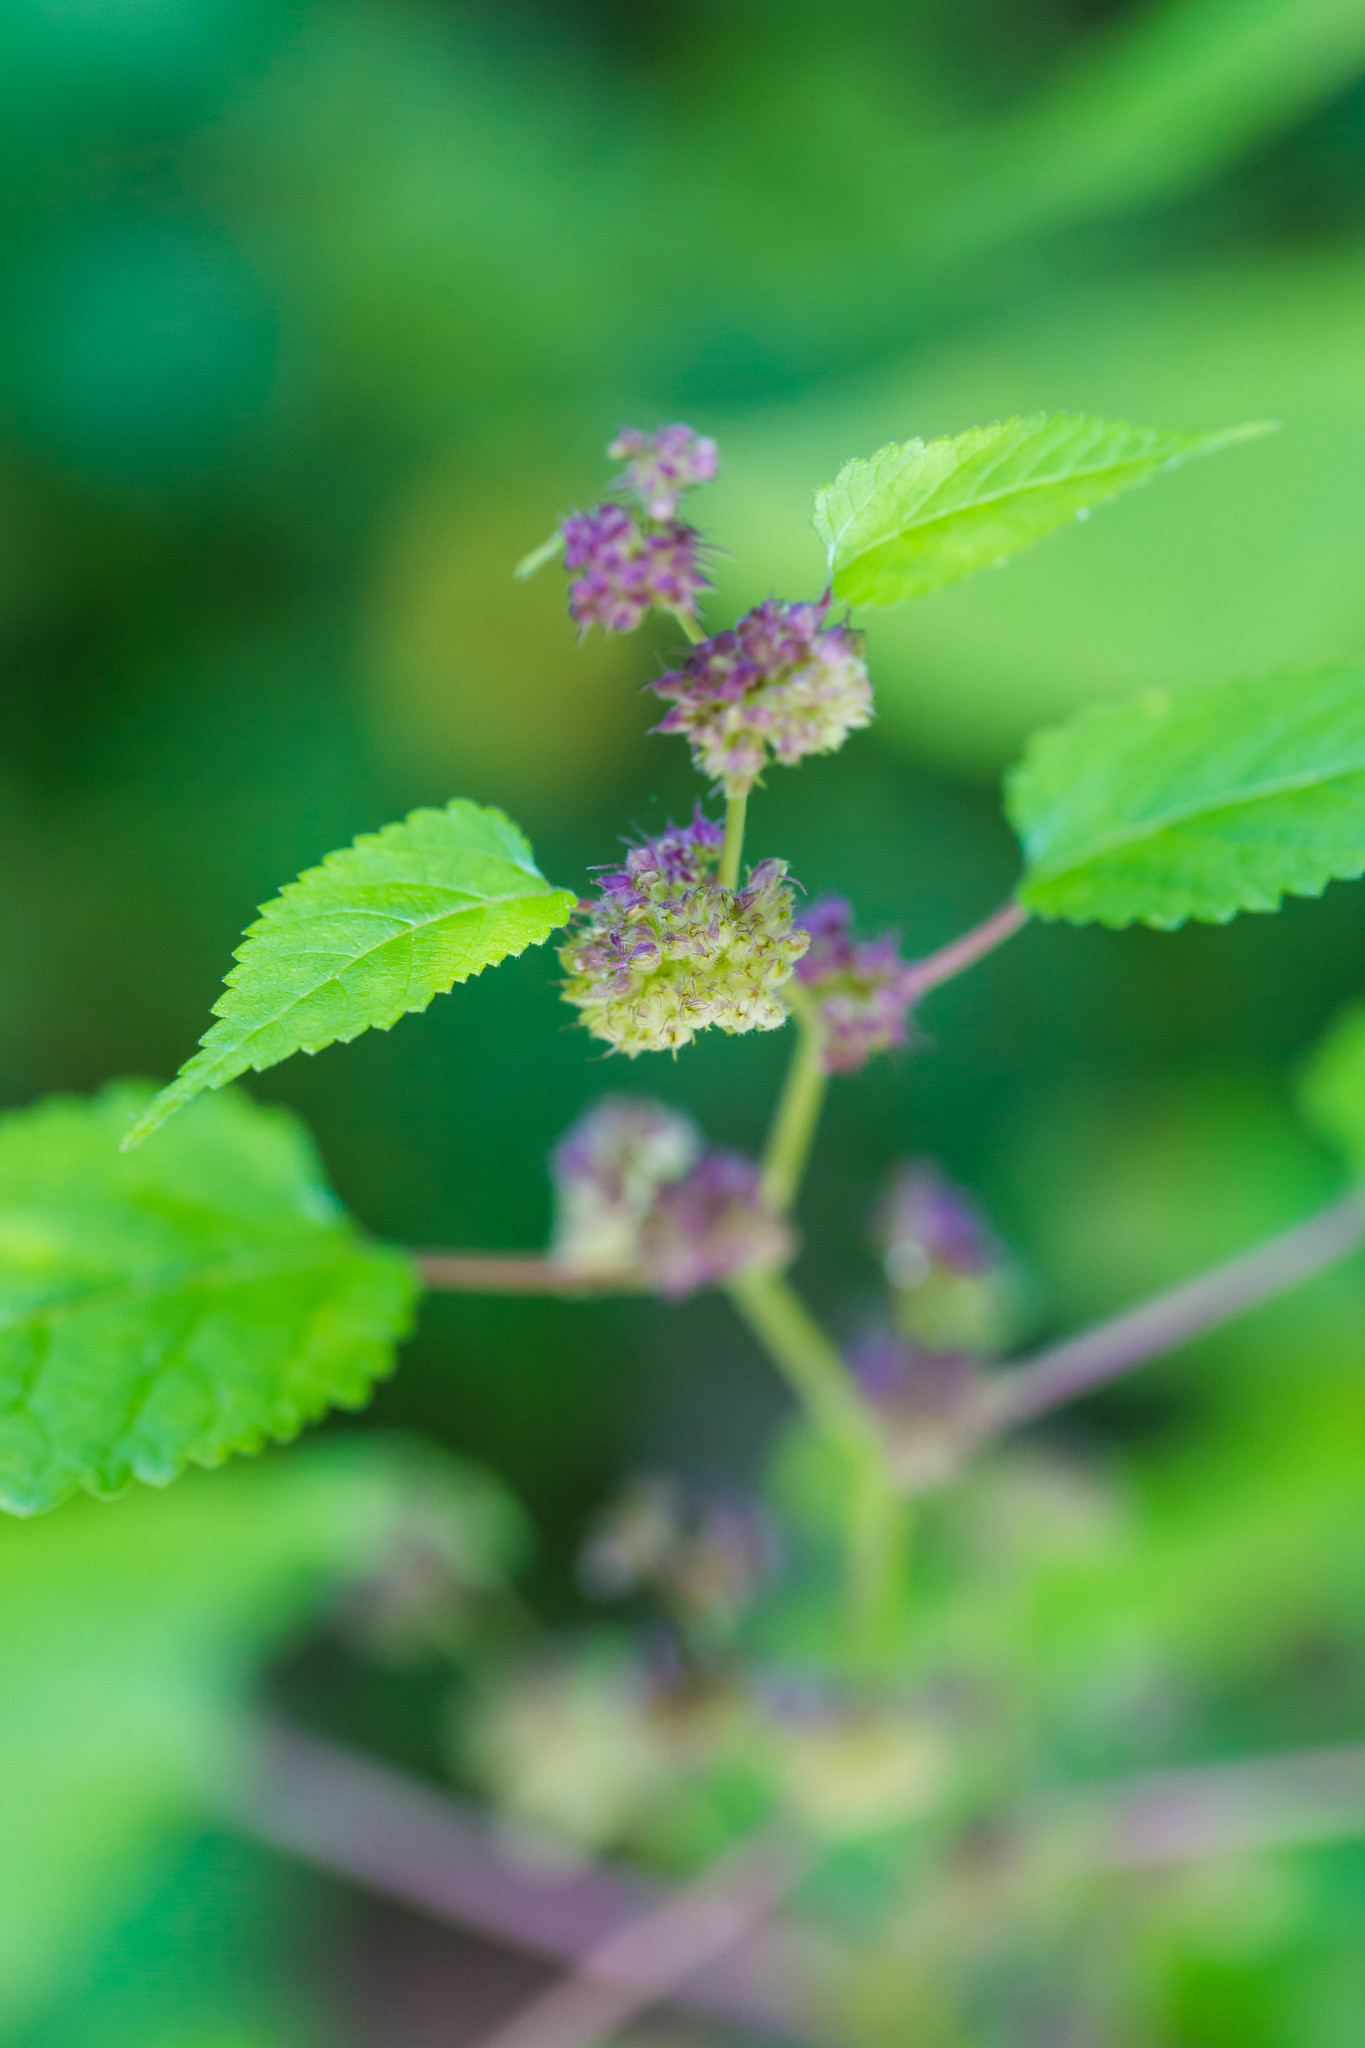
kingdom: Plantae
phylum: Tracheophyta
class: Magnoliopsida
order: Rosales
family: Moraceae
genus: Fatoua
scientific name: Fatoua villosa
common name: Hairy crabweed
